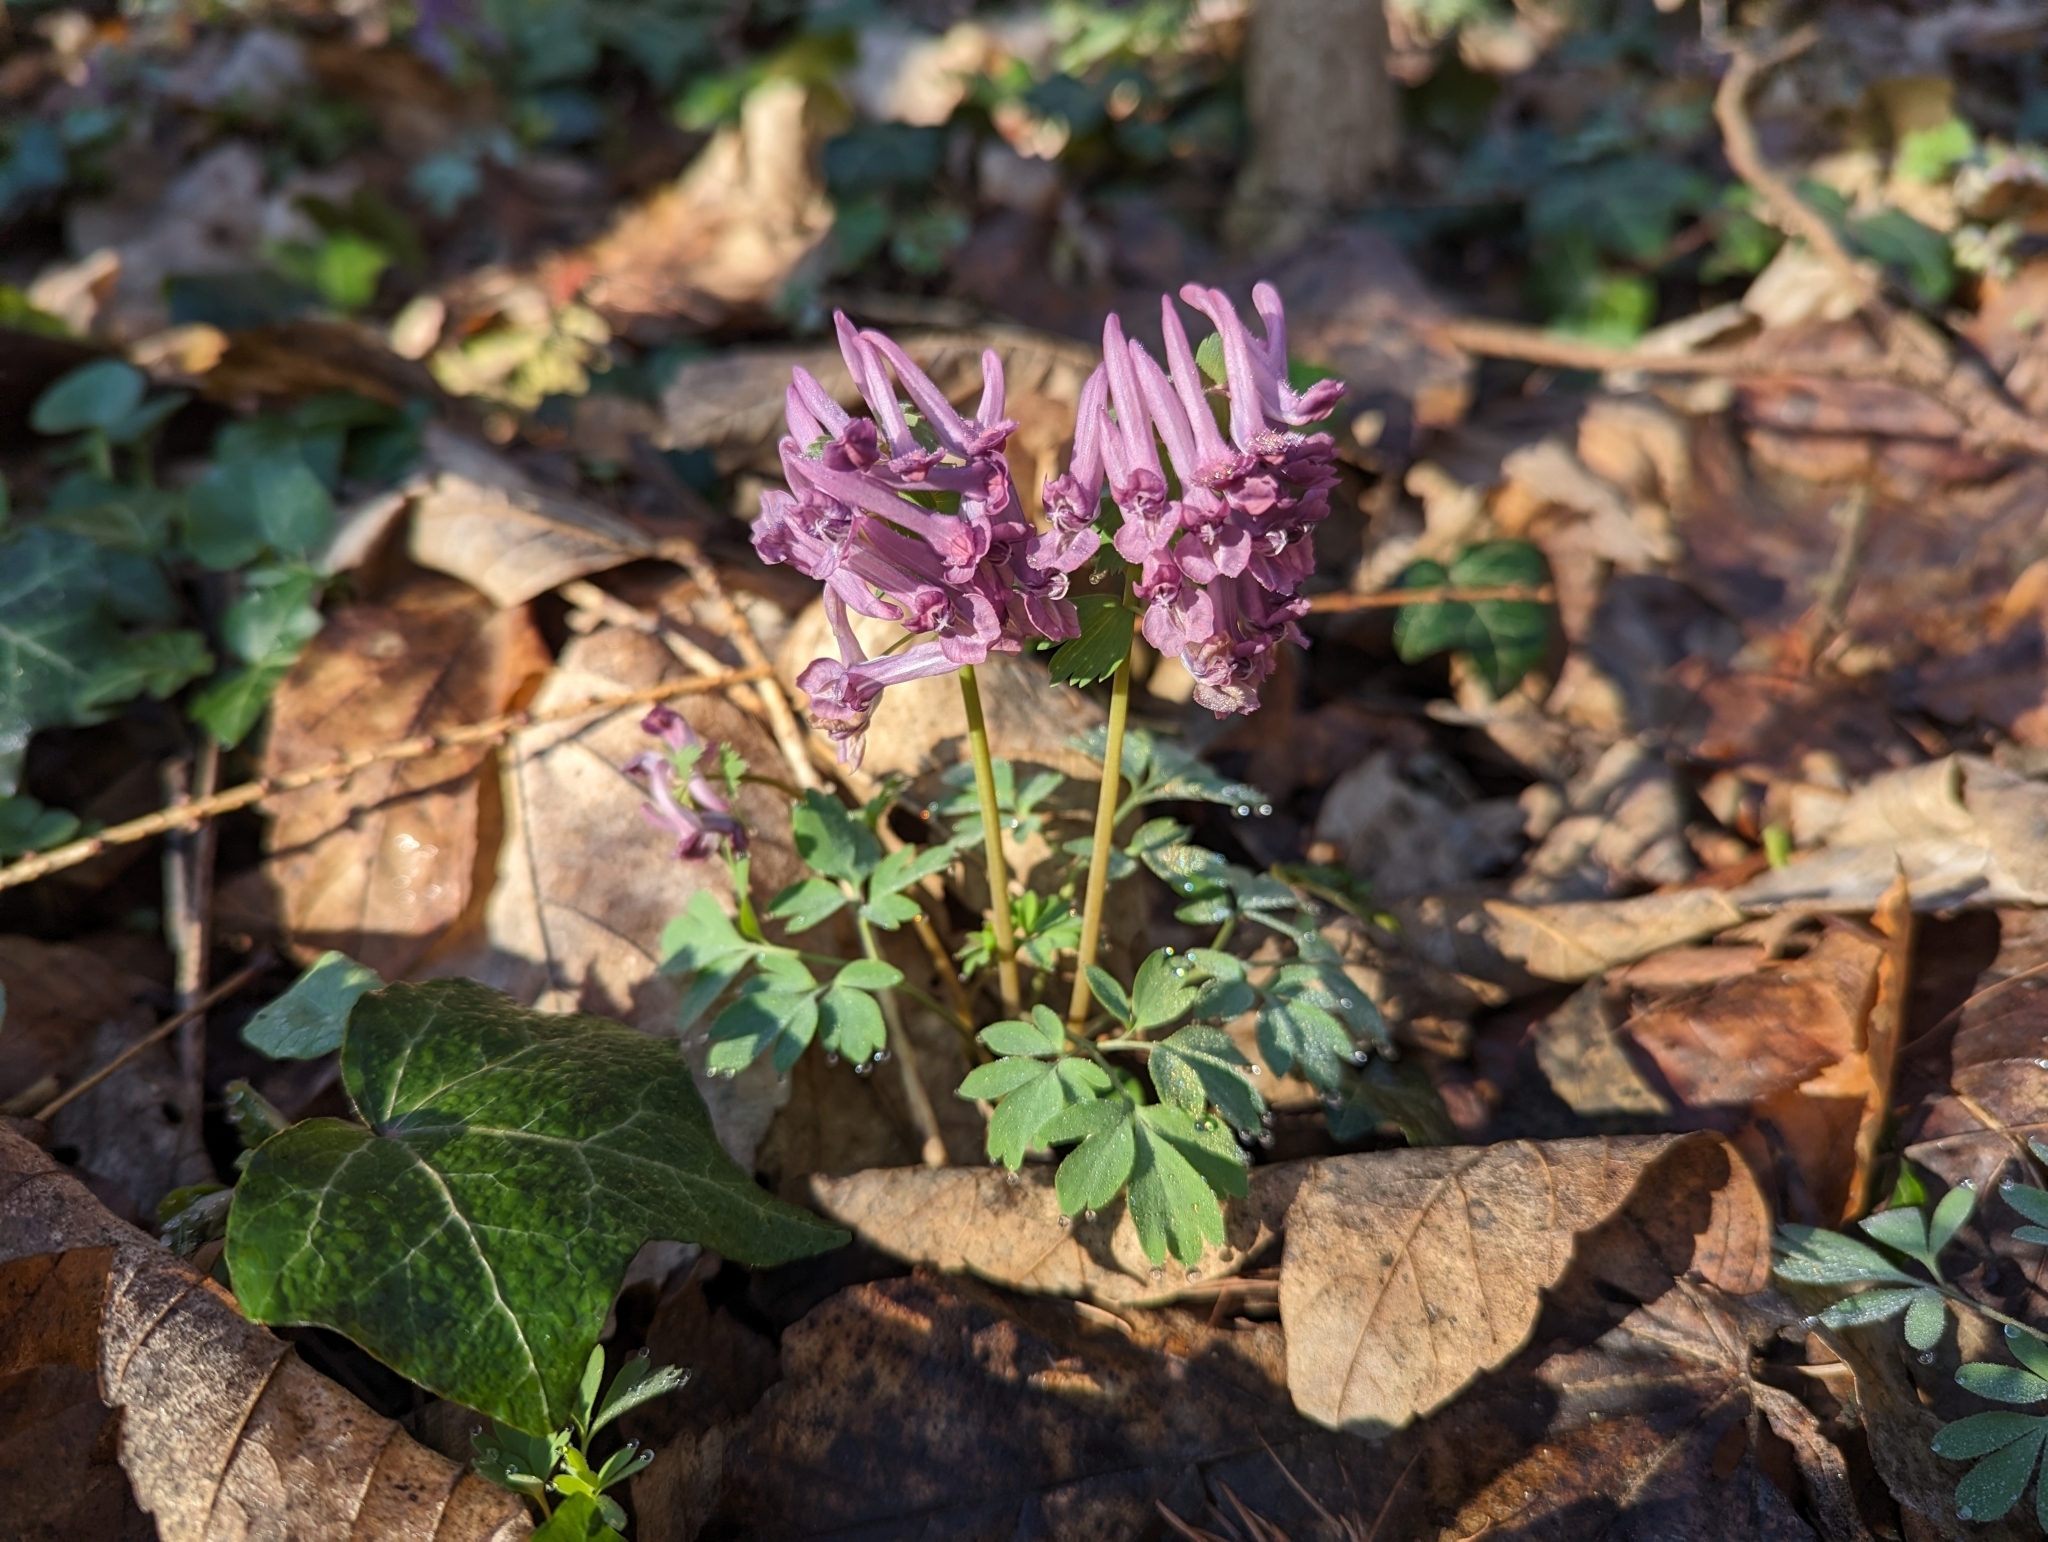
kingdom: Plantae
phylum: Tracheophyta
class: Magnoliopsida
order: Ranunculales
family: Papaveraceae
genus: Corydalis
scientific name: Corydalis solida
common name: Bird-in-a-bush
